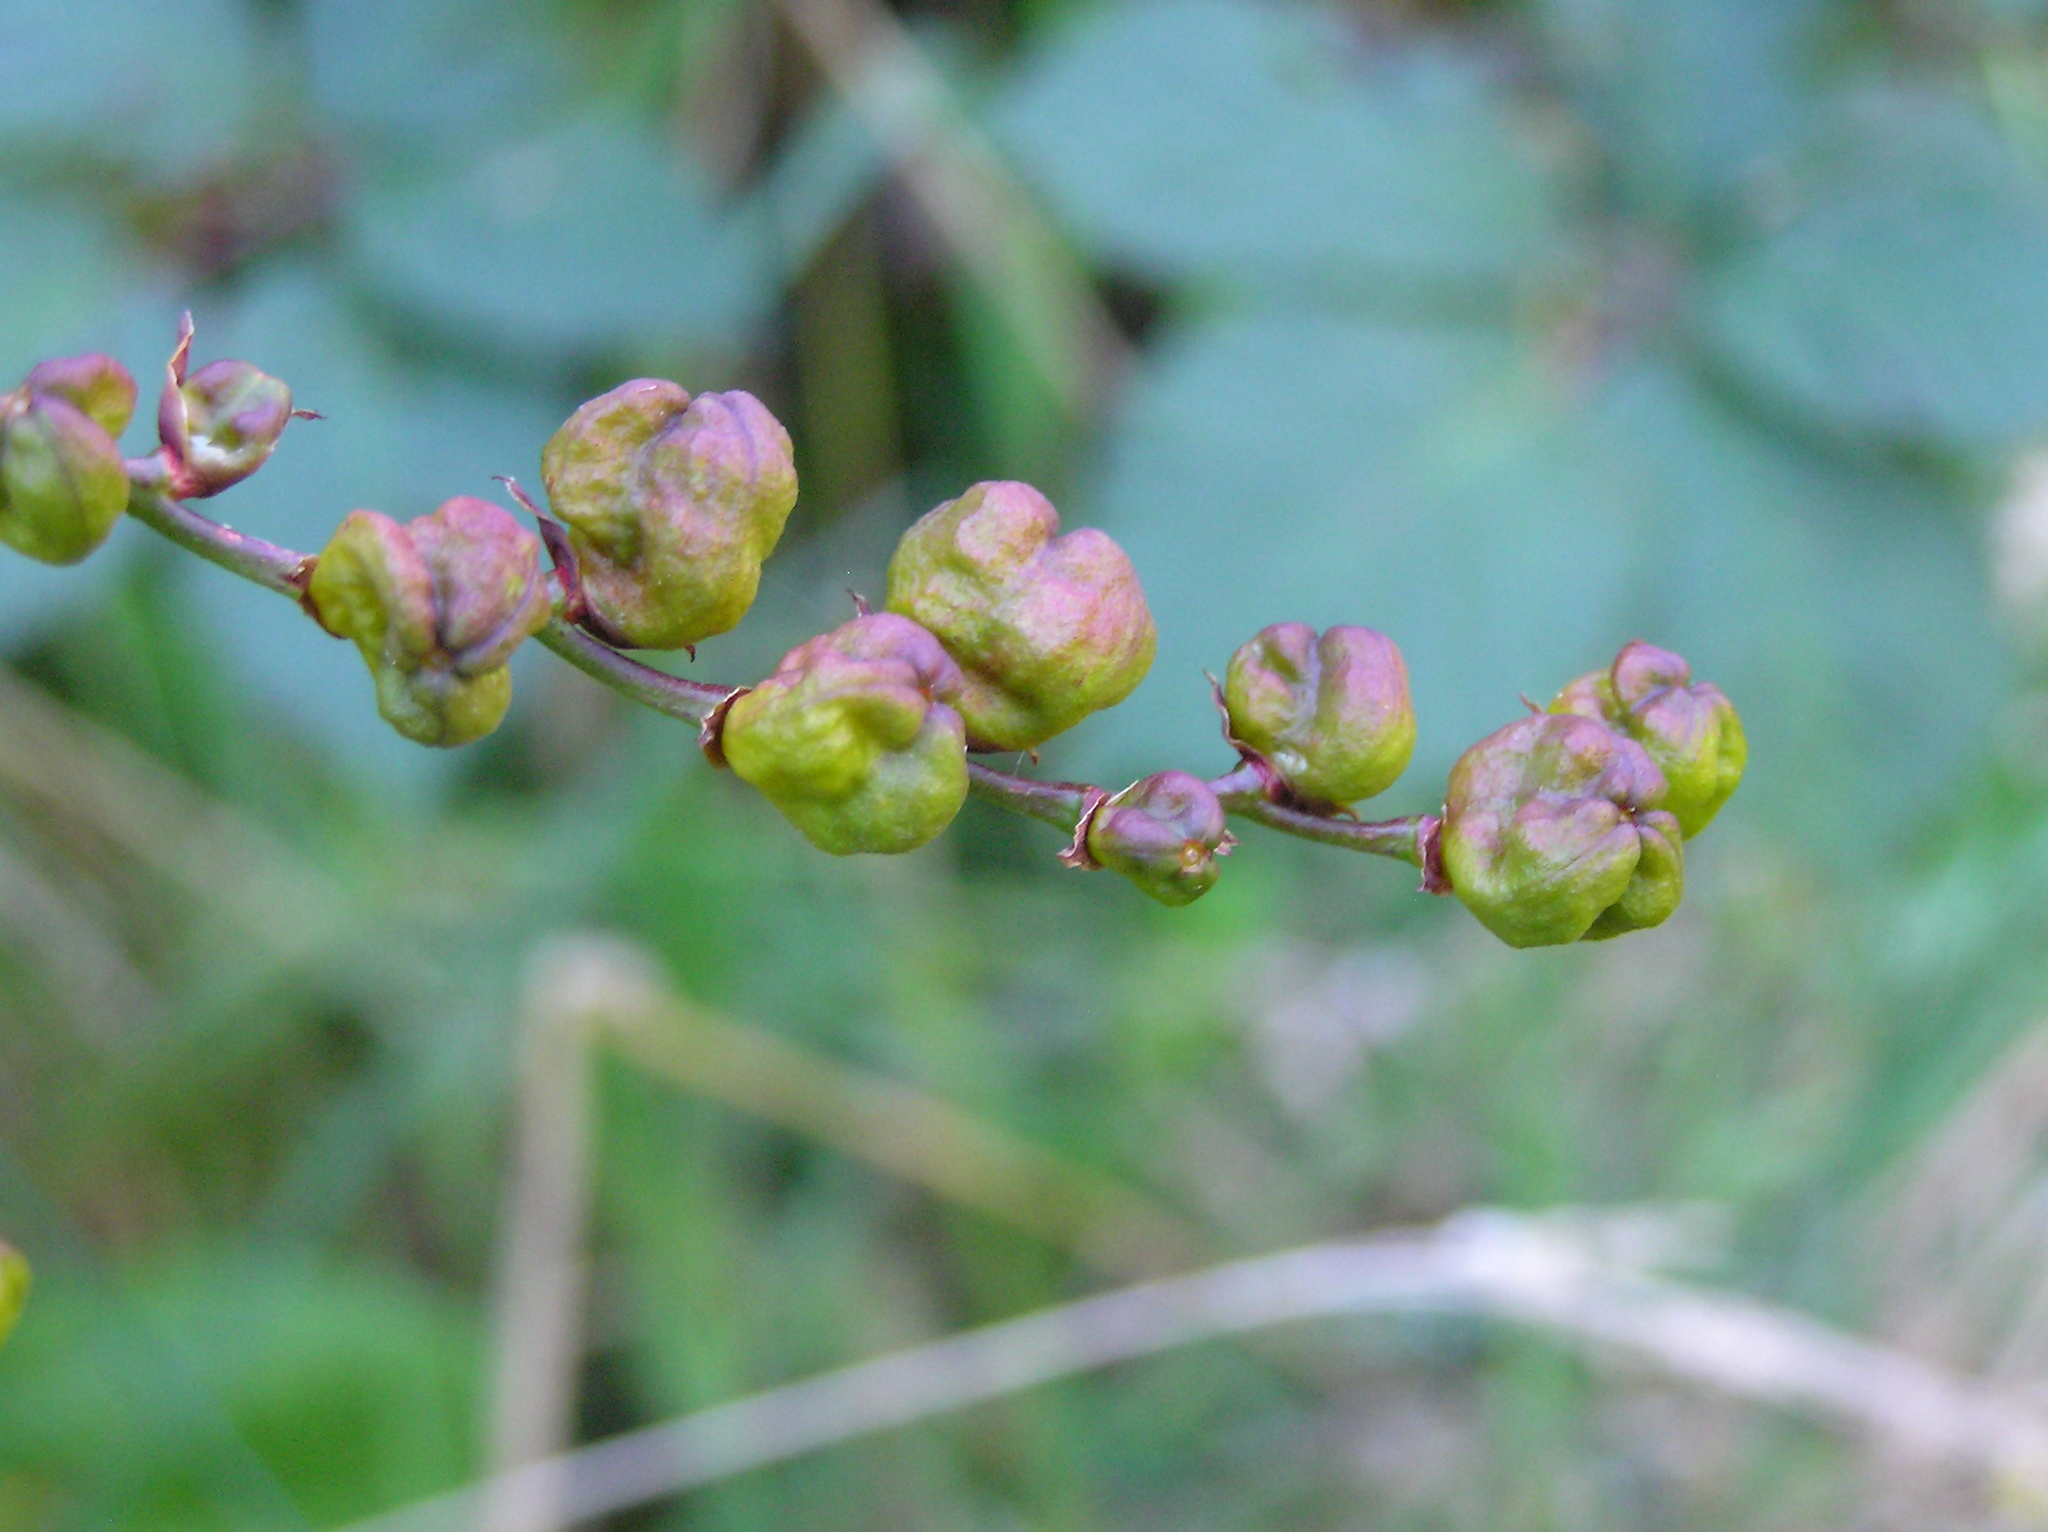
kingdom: Plantae
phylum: Tracheophyta
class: Liliopsida
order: Asparagales
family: Iridaceae
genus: Crocosmia
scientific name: Crocosmia crocosmiiflora
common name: Montbretia
